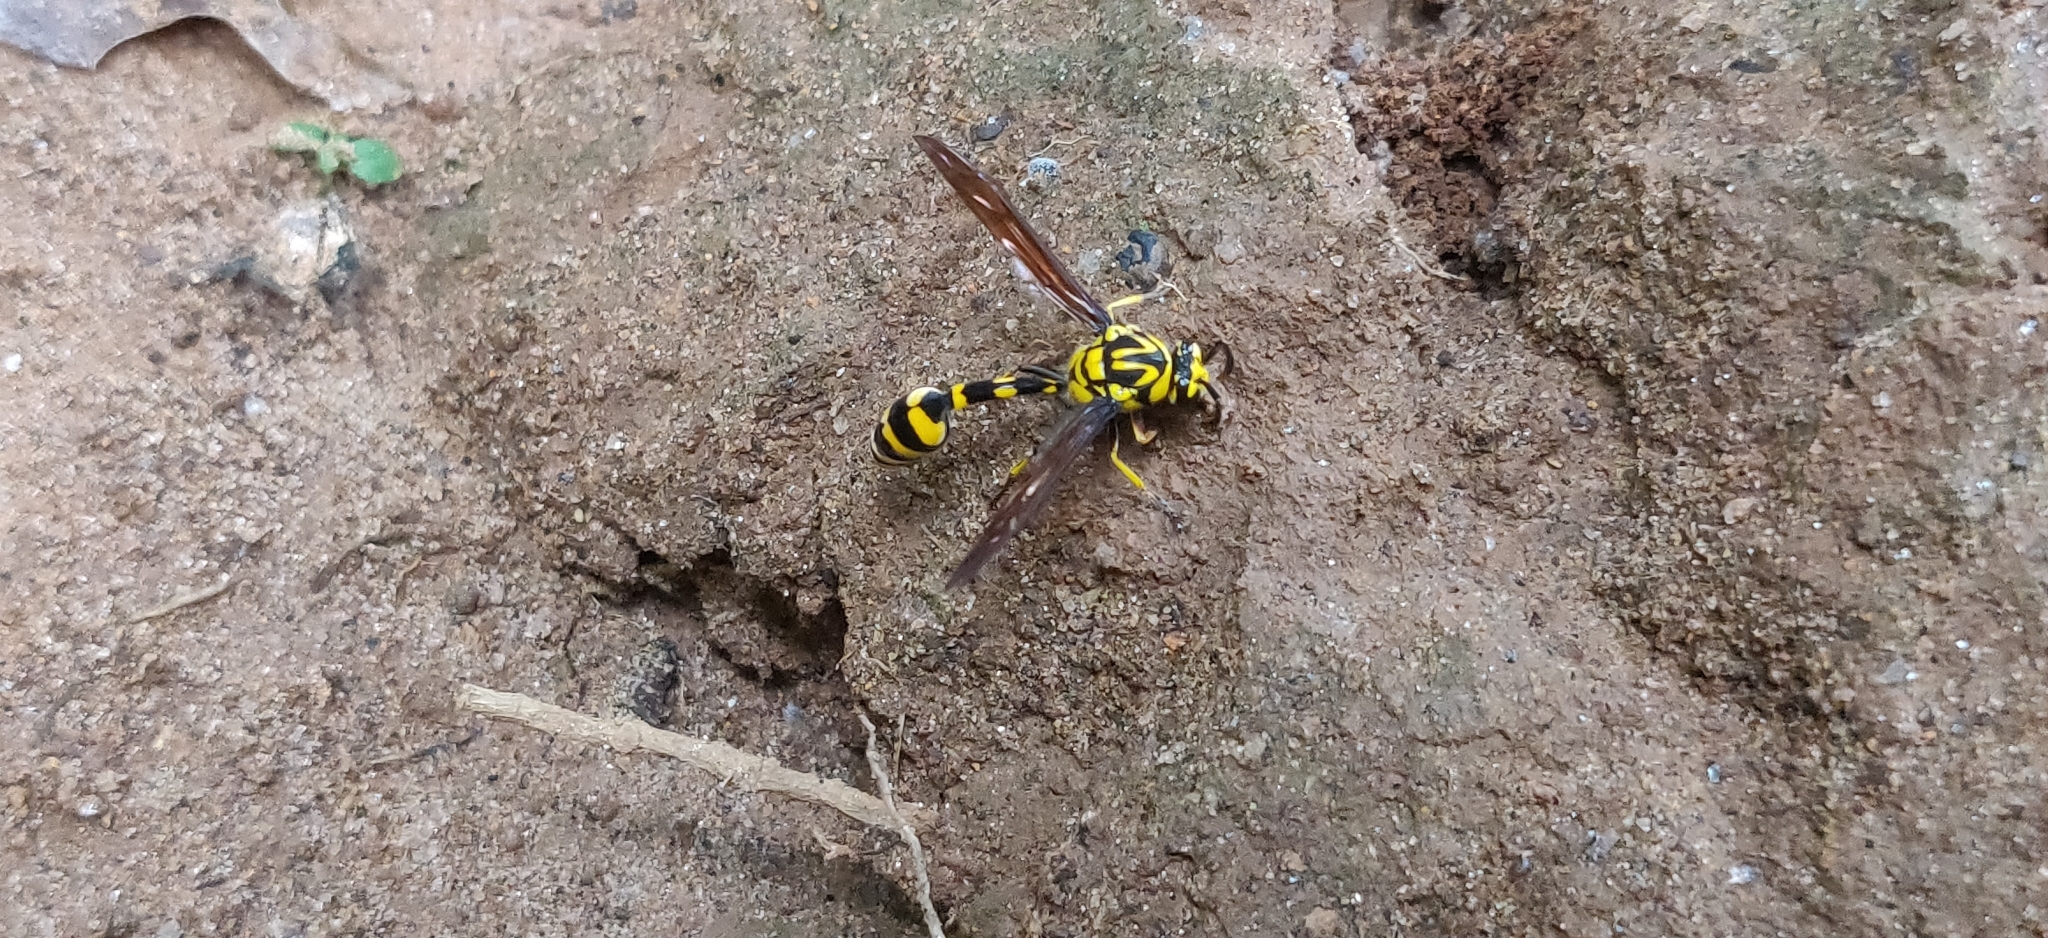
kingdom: Animalia
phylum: Arthropoda
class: Insecta
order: Hymenoptera
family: Eumenidae
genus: Phimenes
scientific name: Phimenes flavopictus
